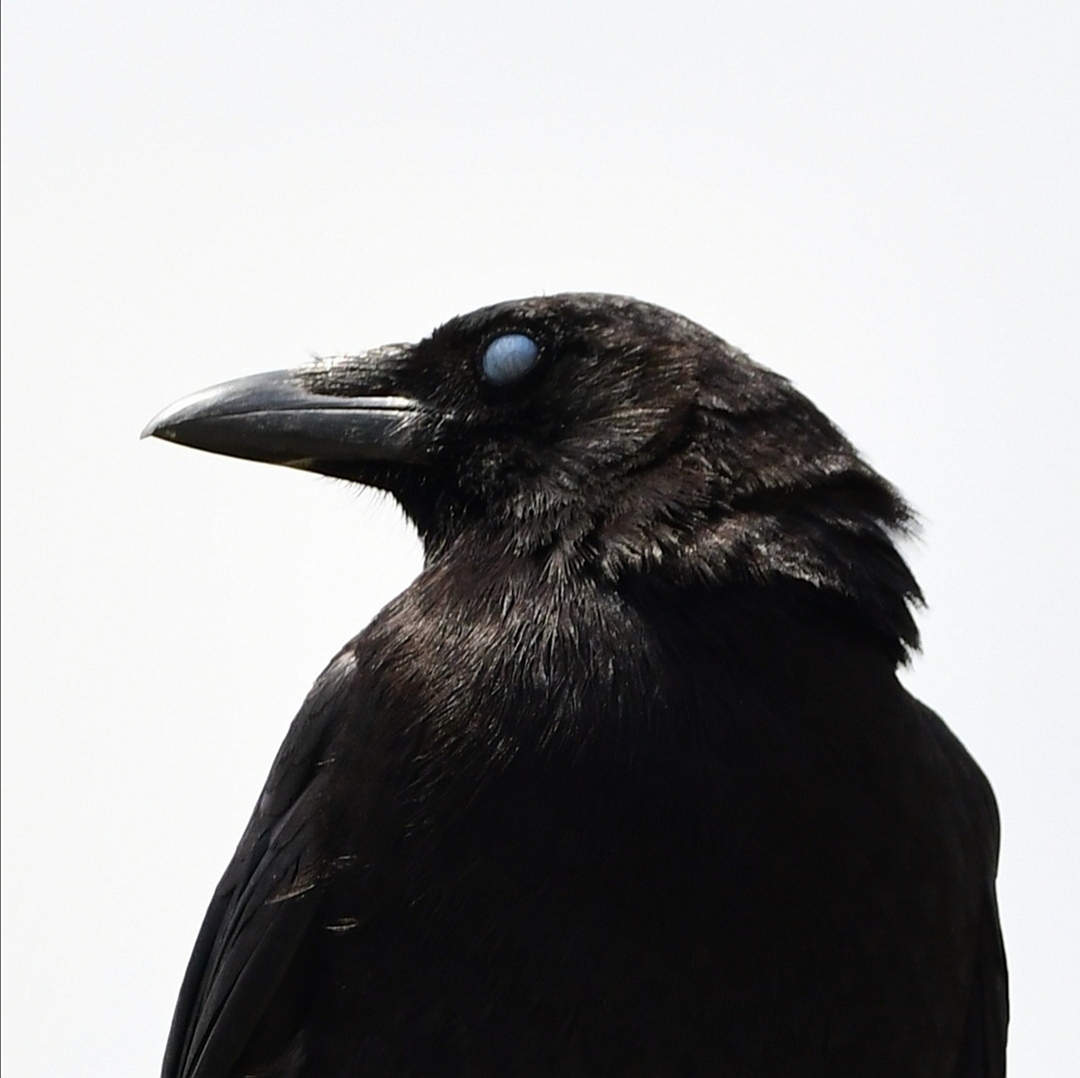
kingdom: Animalia
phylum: Chordata
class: Aves
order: Passeriformes
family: Corvidae
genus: Corvus
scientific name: Corvus brachyrhynchos
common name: American crow
